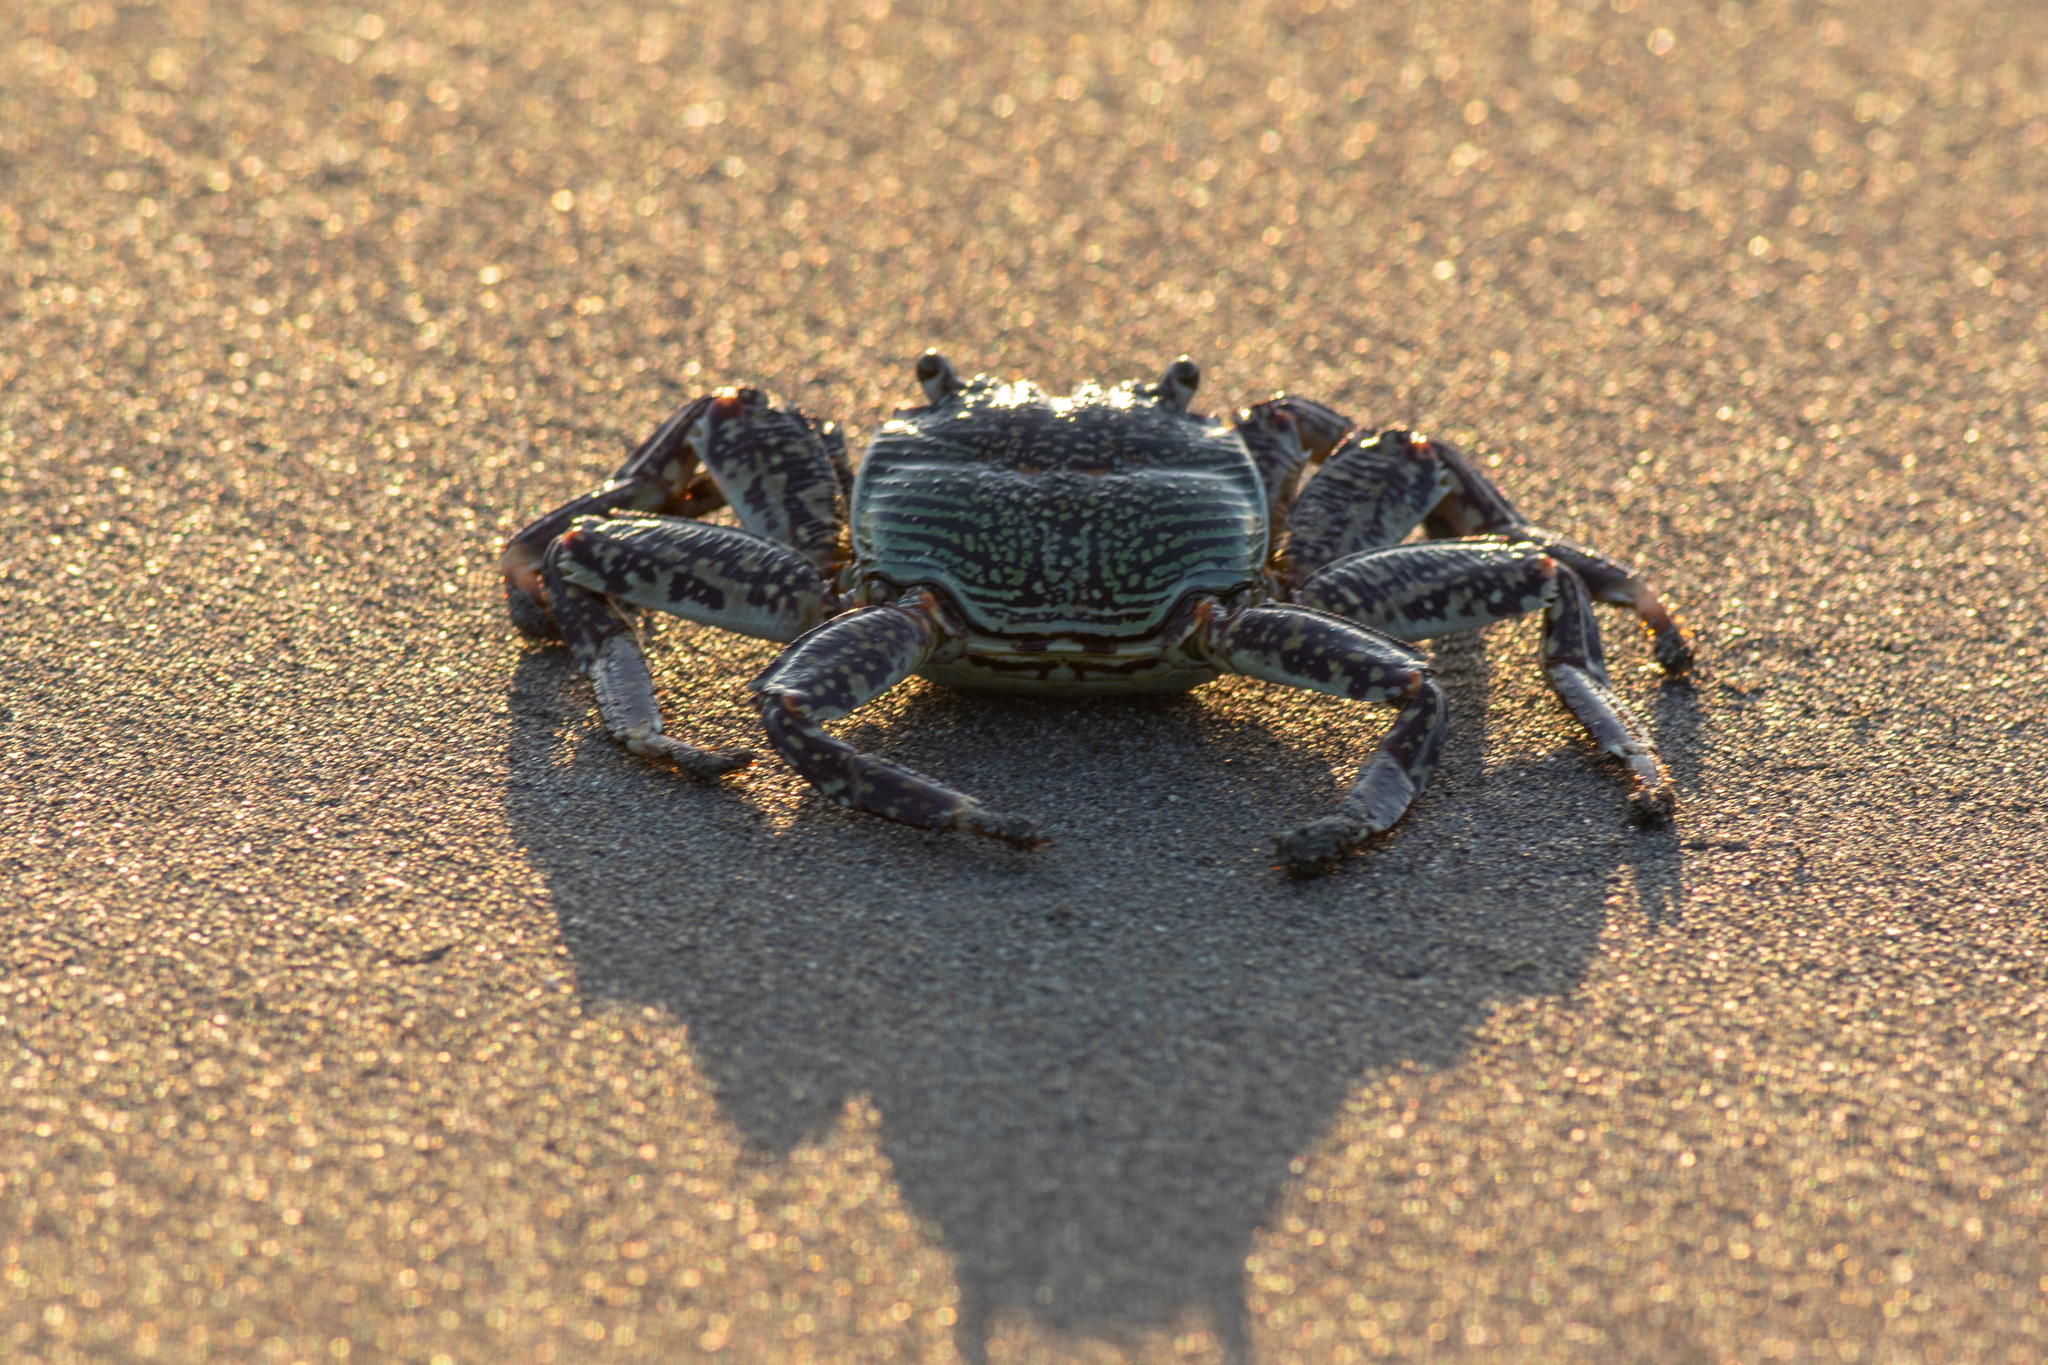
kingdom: Animalia
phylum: Arthropoda
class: Malacostraca
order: Decapoda
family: Grapsidae
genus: Grapsus
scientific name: Grapsus albolineatus
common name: Mottled lightfoot crab
